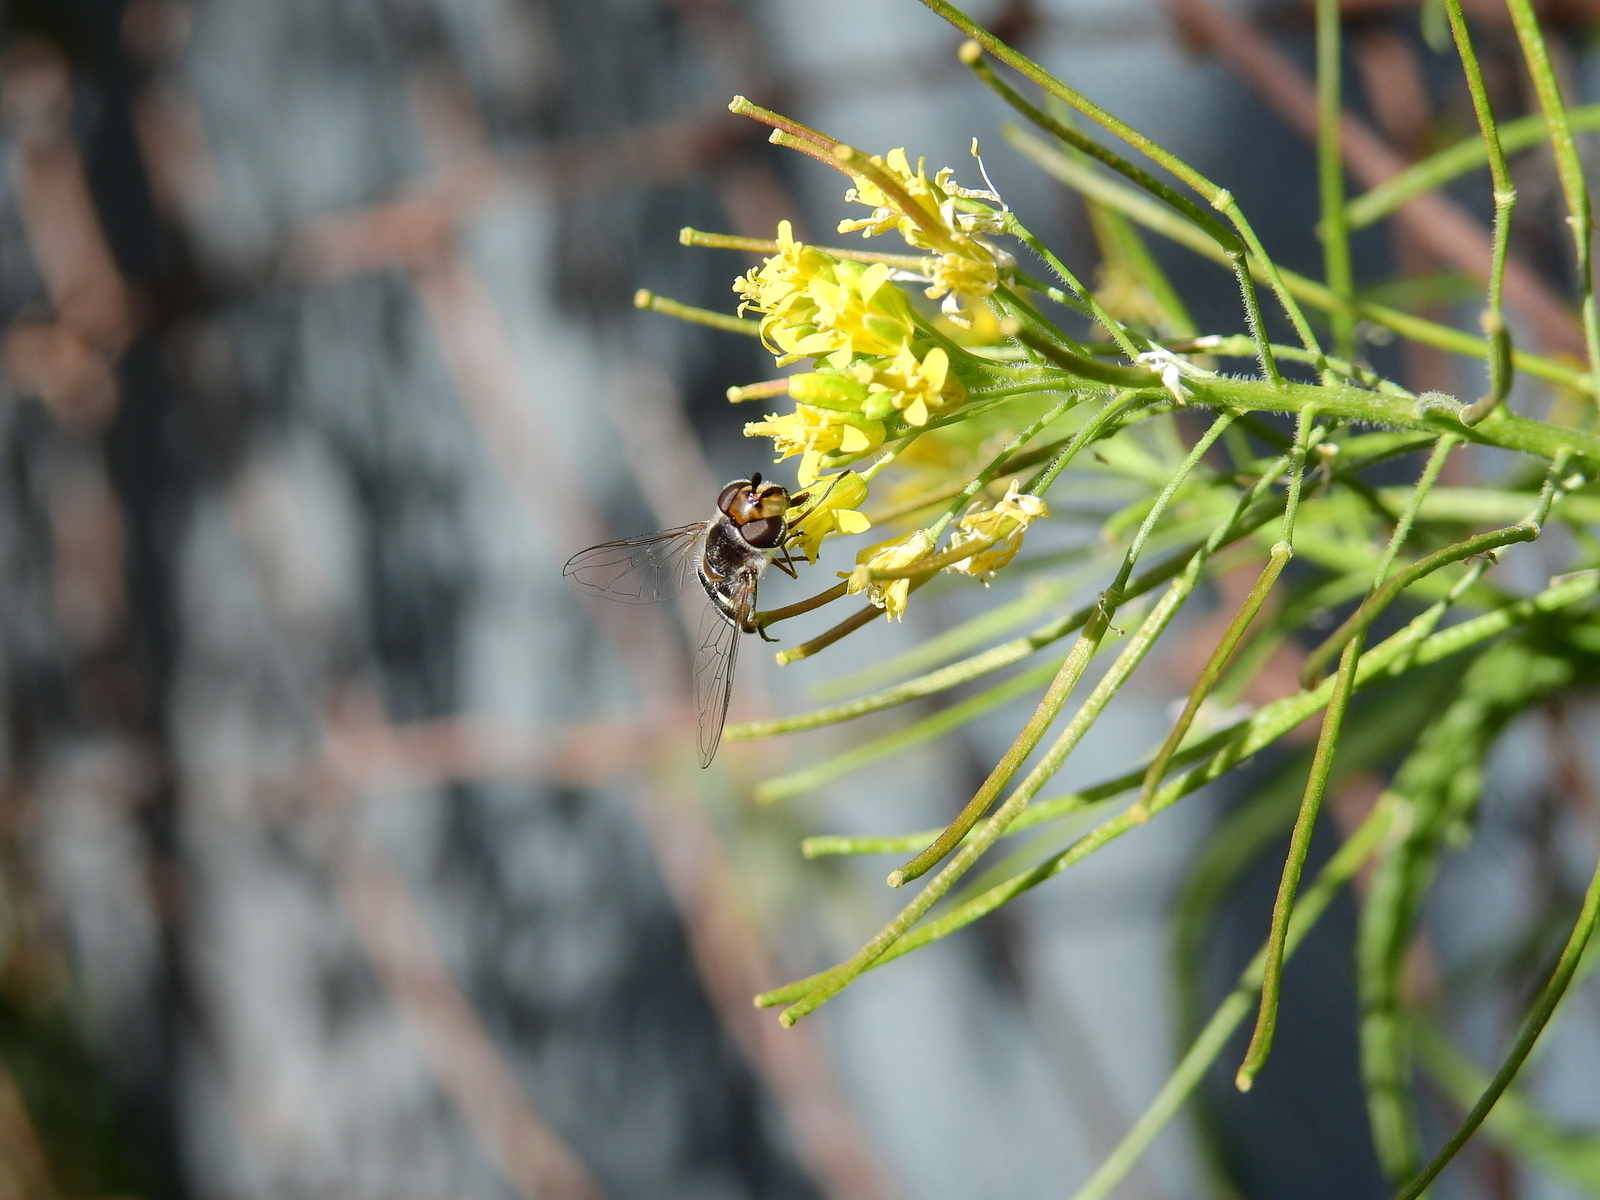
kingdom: Plantae
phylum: Tracheophyta
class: Magnoliopsida
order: Brassicales
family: Brassicaceae
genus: Sisymbrium
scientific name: Sisymbrium irio
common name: London rocket
